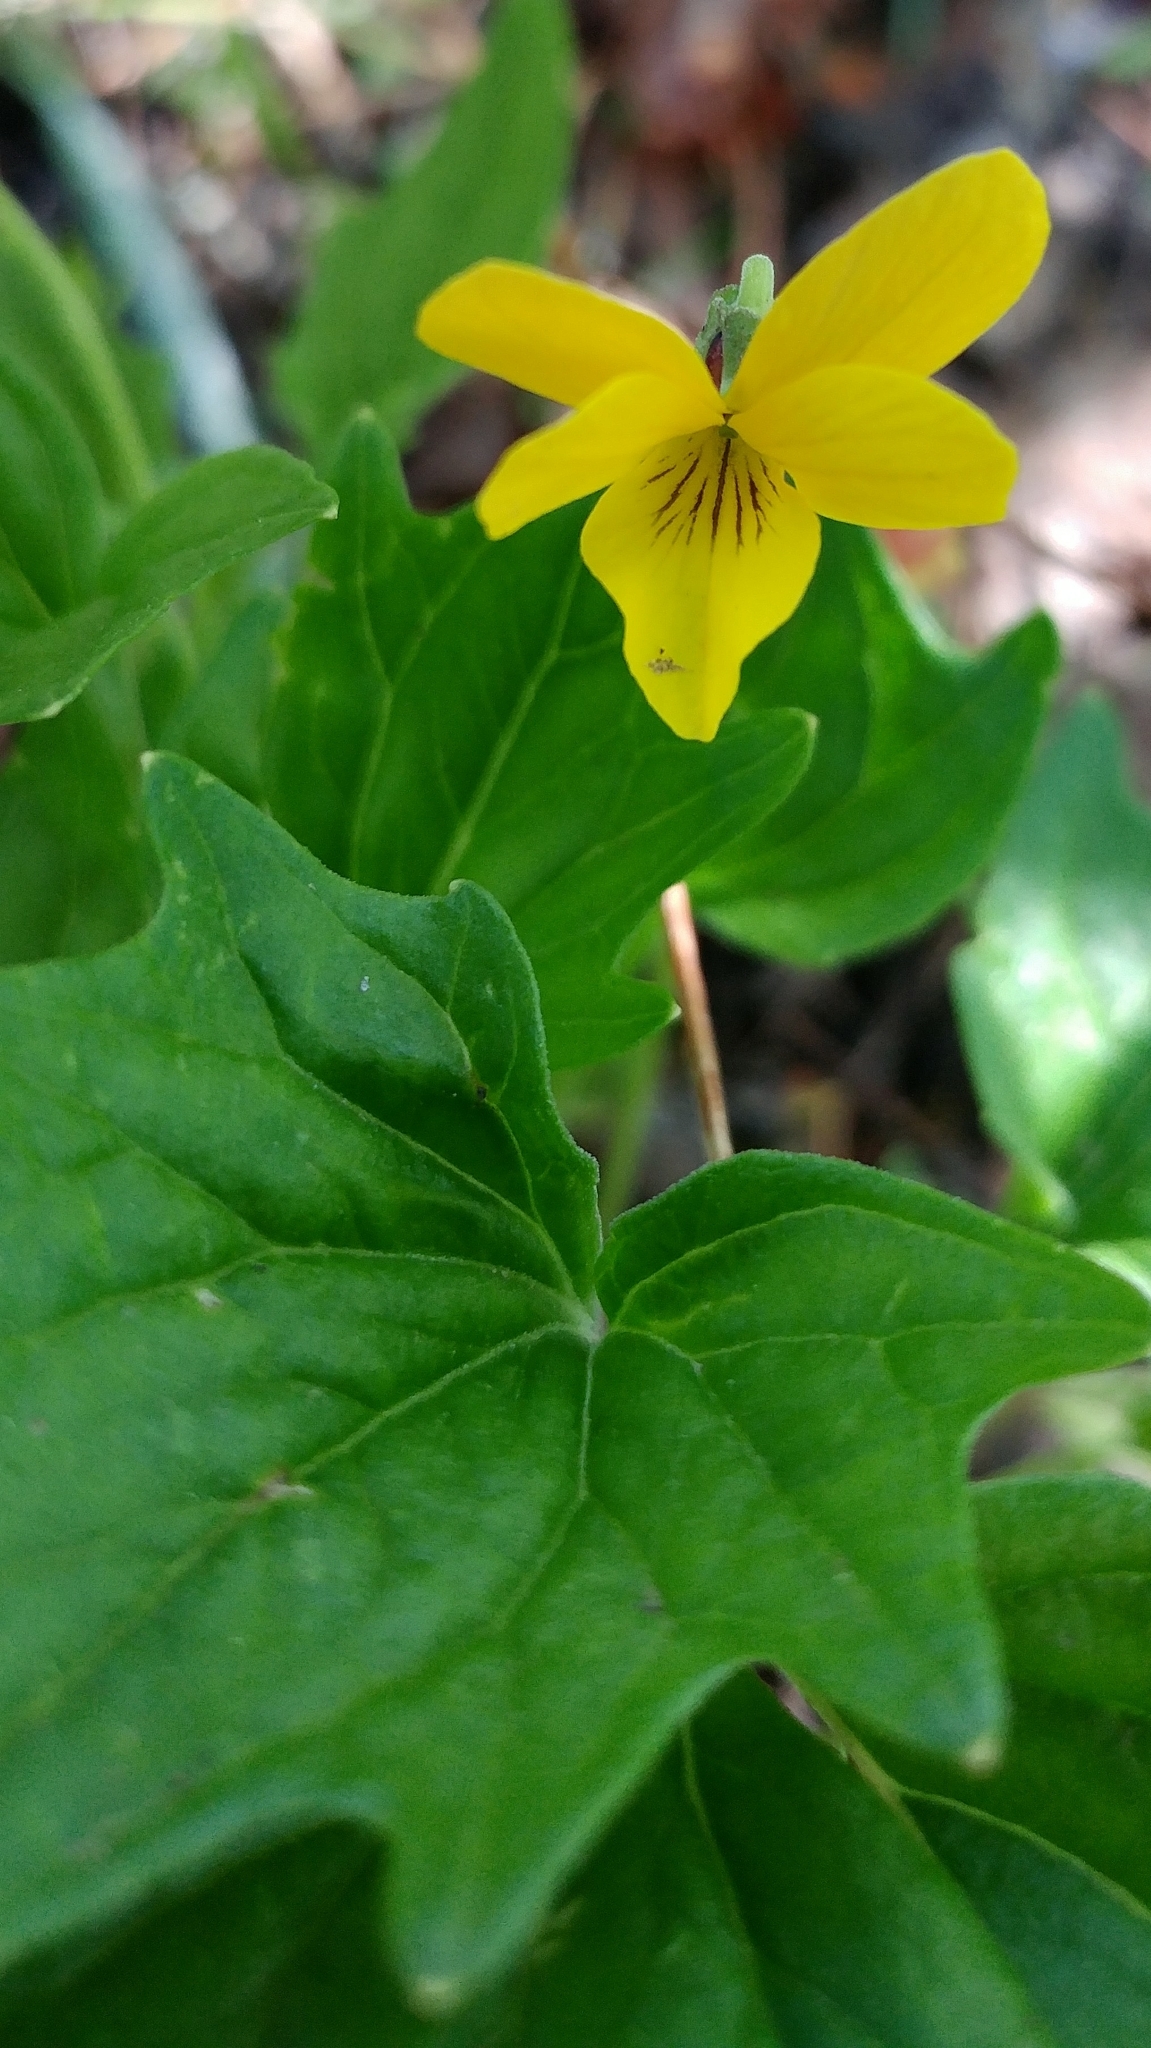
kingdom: Plantae
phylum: Tracheophyta
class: Magnoliopsida
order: Malpighiales
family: Violaceae
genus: Viola
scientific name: Viola purpurea
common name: Pine violet
